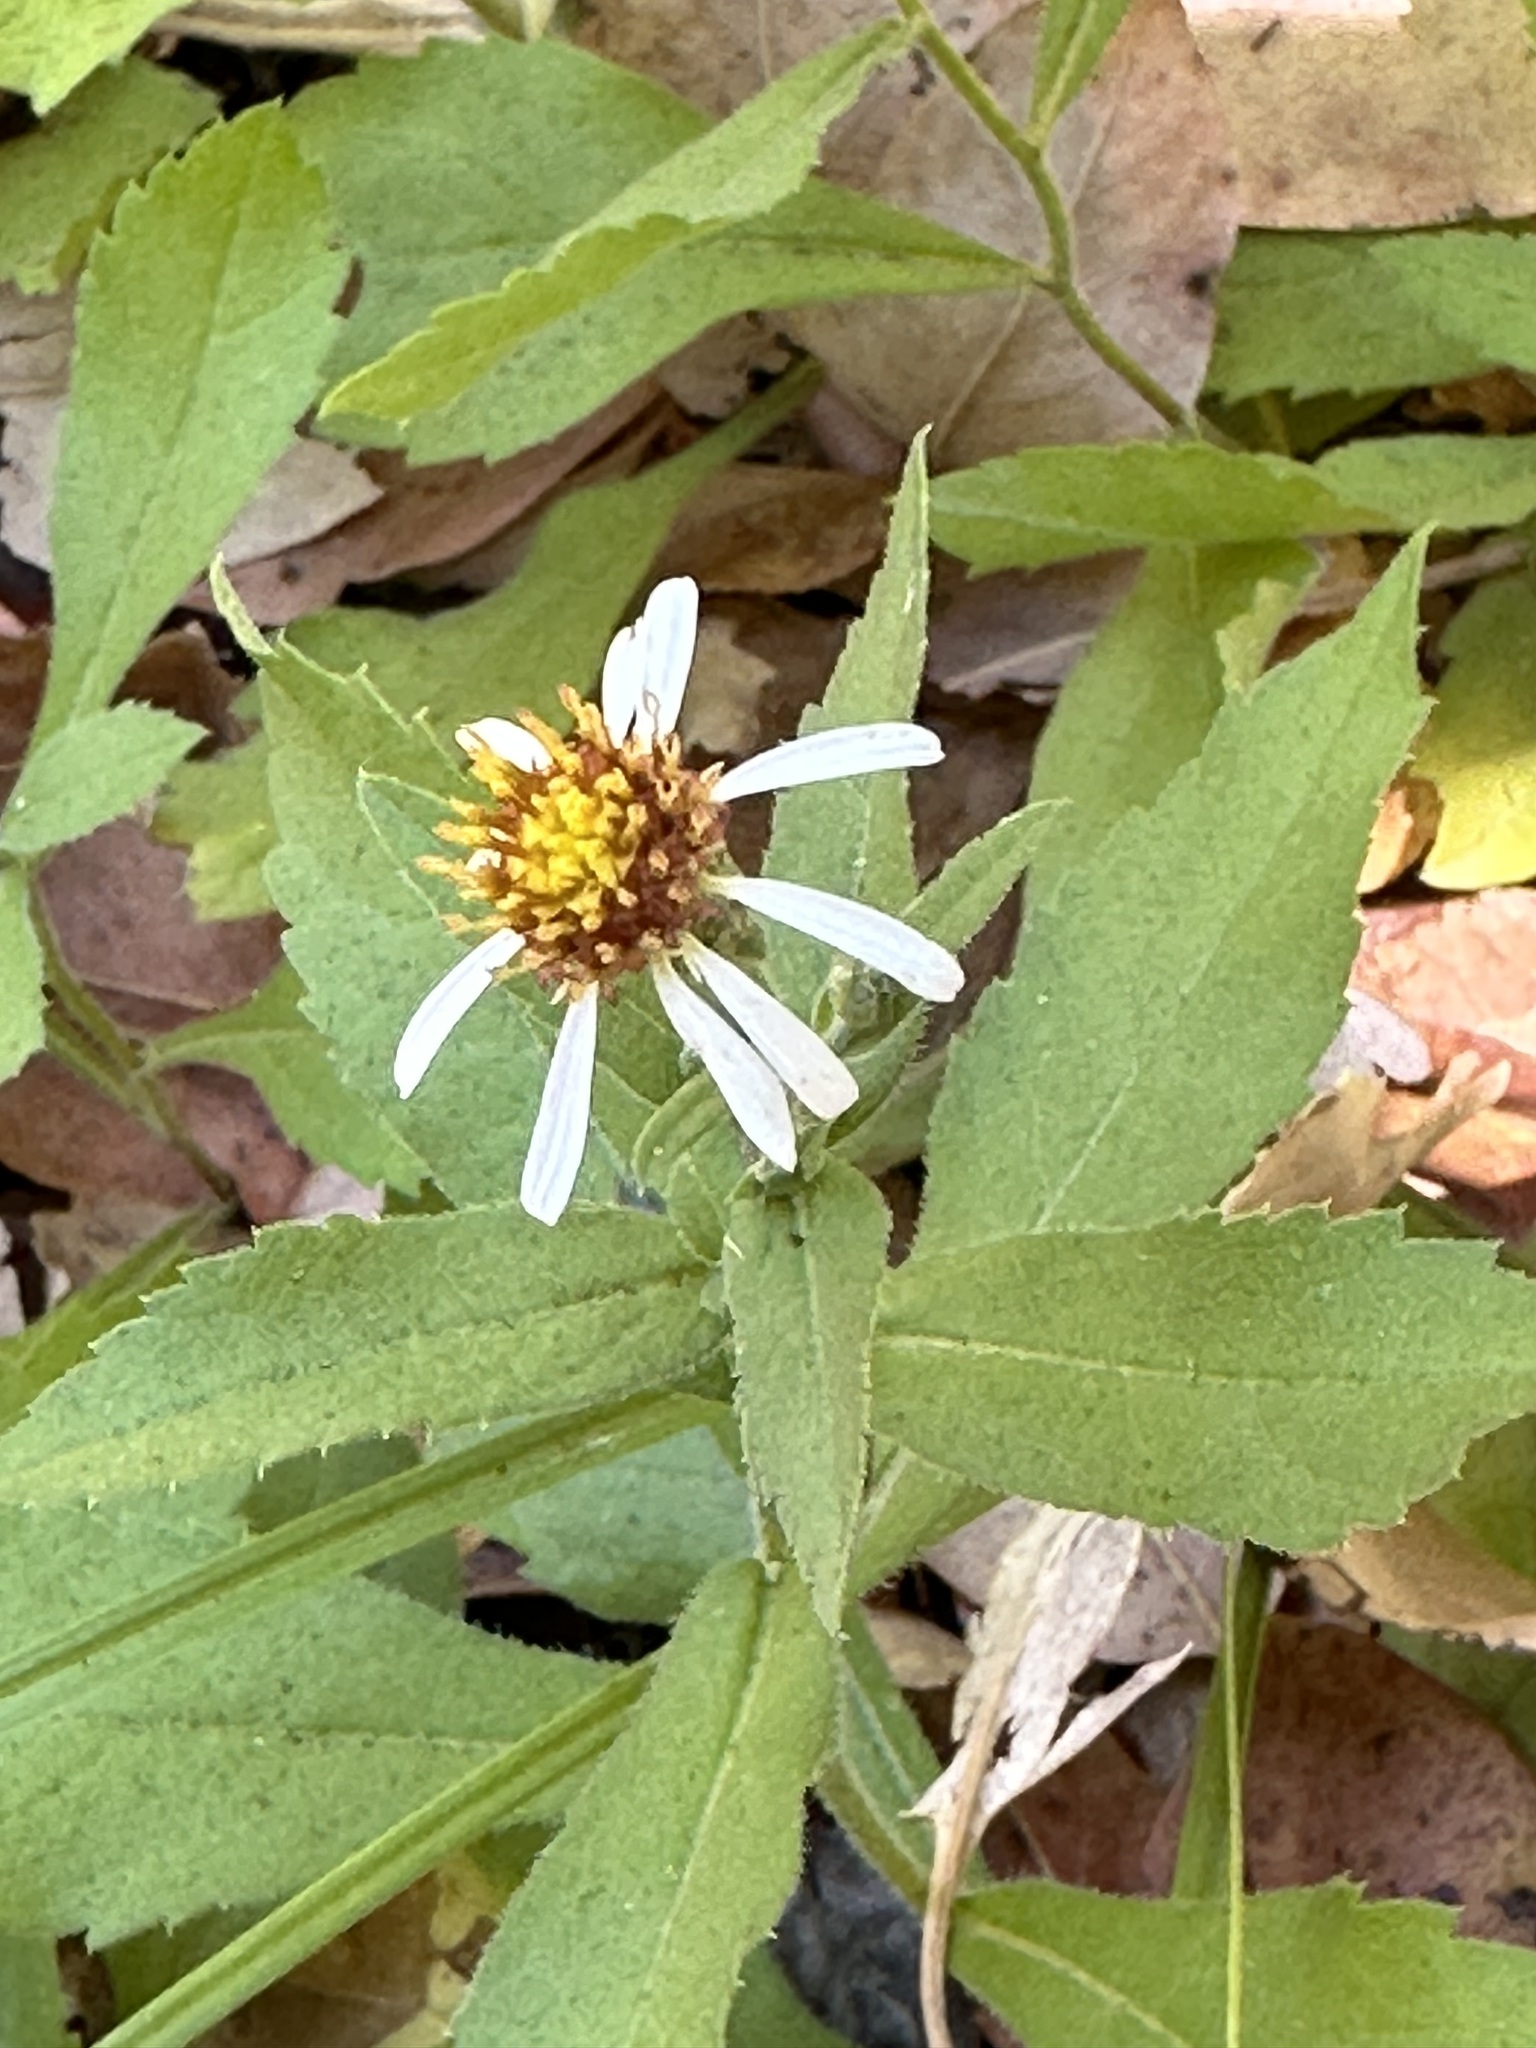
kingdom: Plantae
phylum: Tracheophyta
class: Magnoliopsida
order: Asterales
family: Asteraceae
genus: Eurybia
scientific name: Eurybia radulina
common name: Rough-leaved aster
